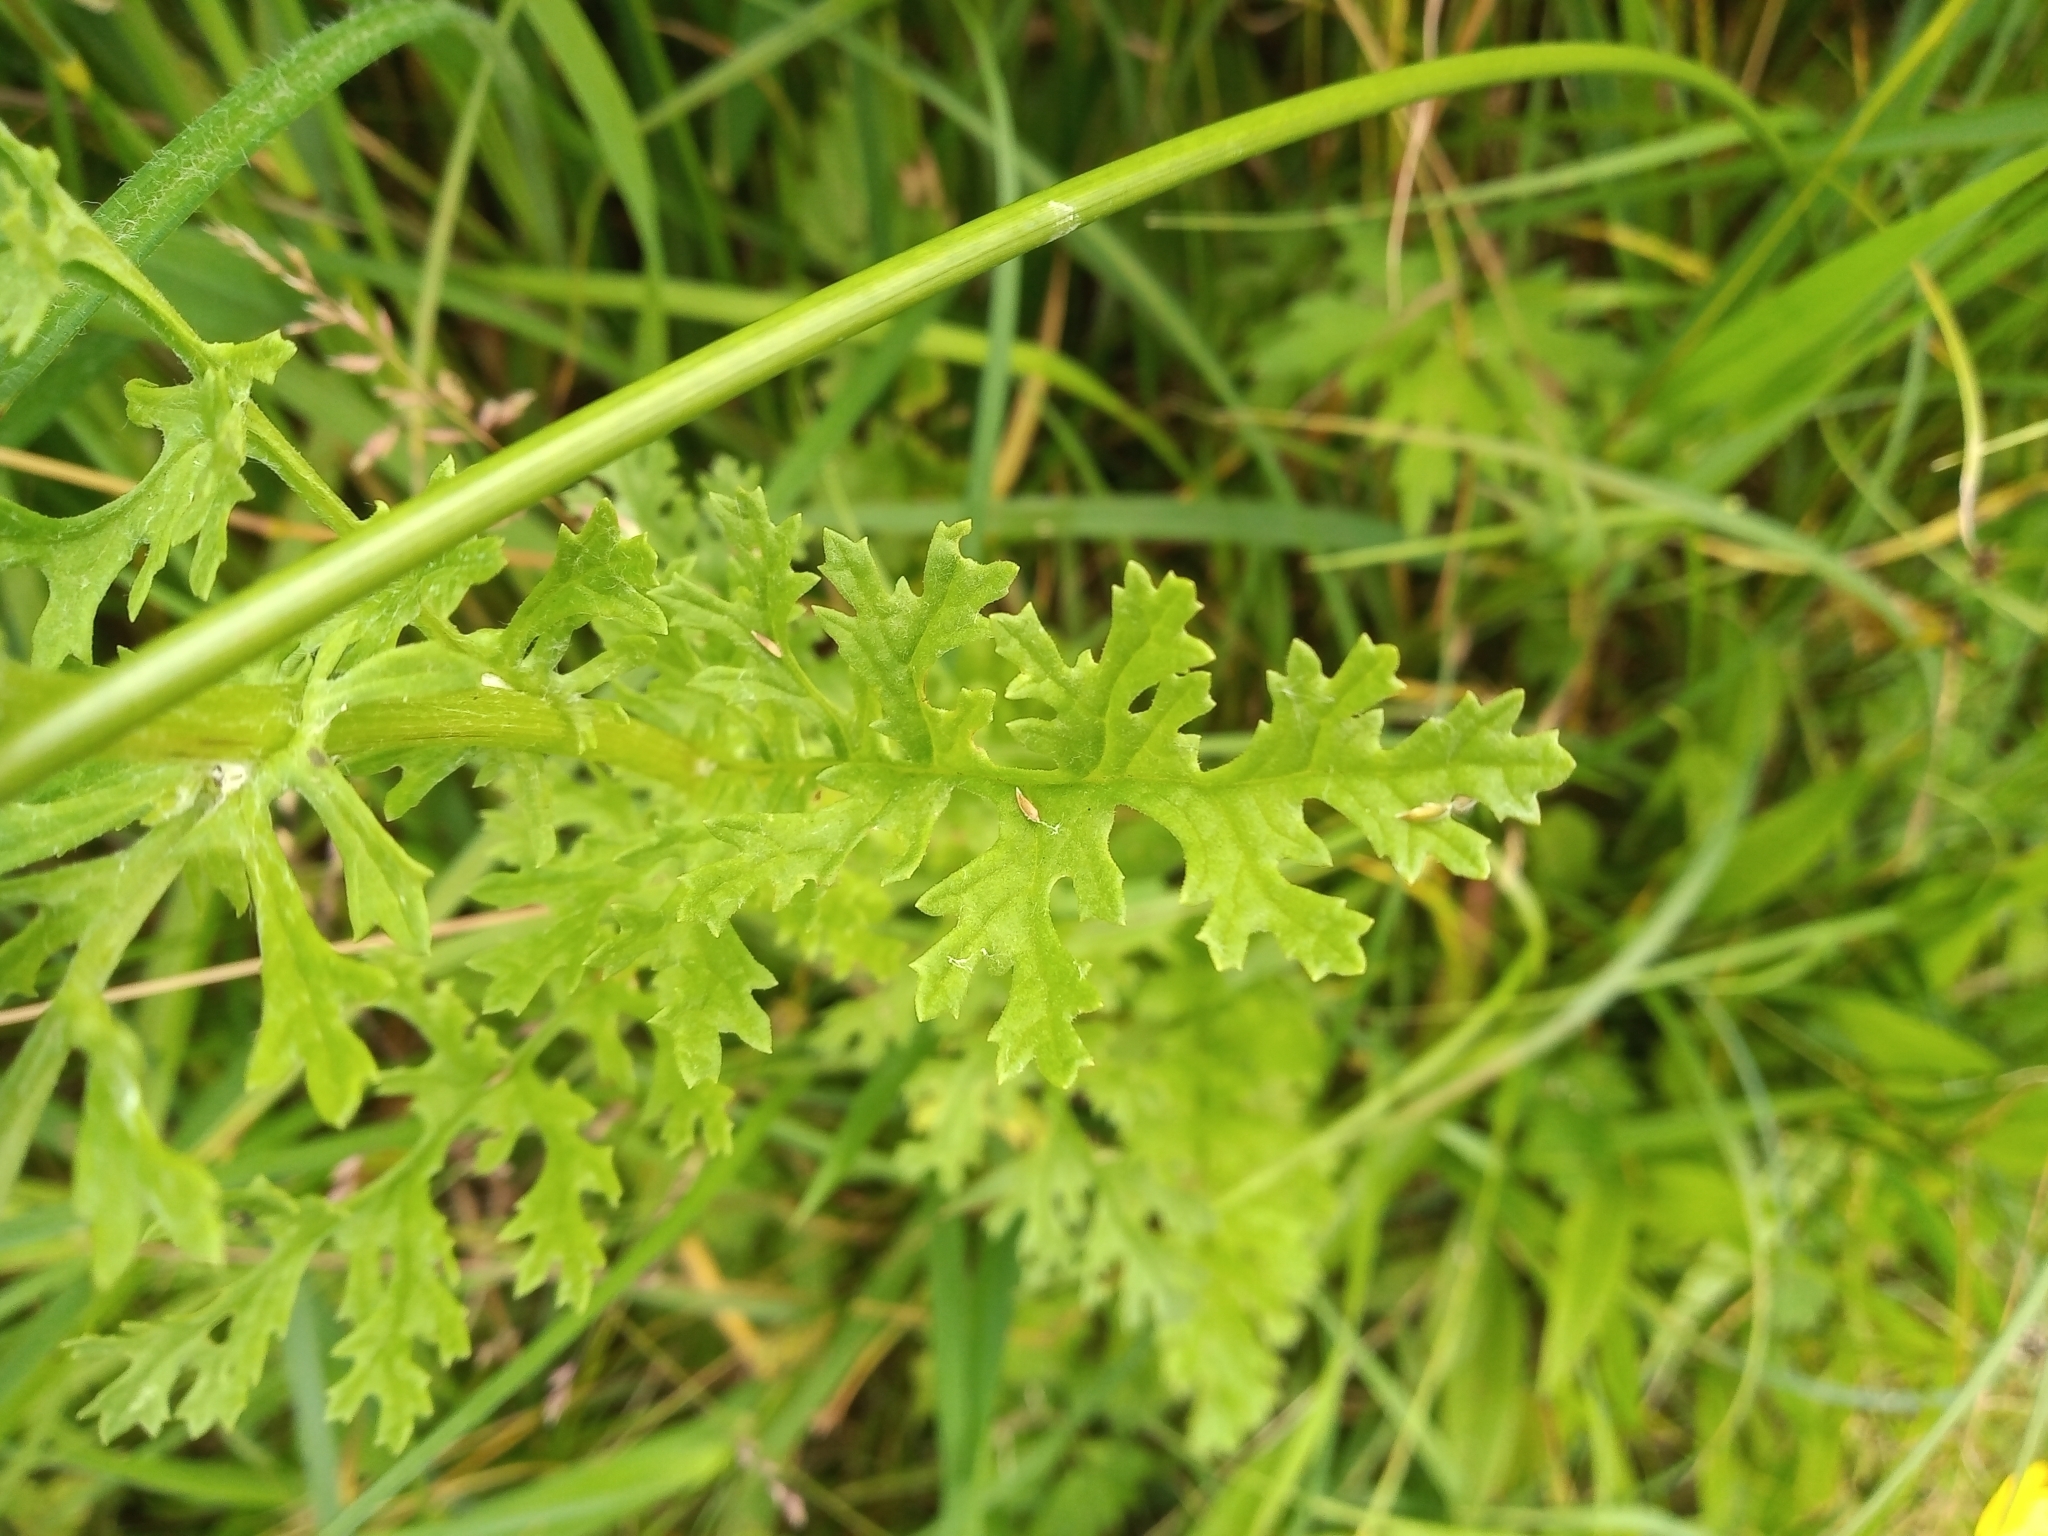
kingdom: Plantae
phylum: Tracheophyta
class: Magnoliopsida
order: Asterales
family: Asteraceae
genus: Jacobaea
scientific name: Jacobaea vulgaris
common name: Stinking willie
